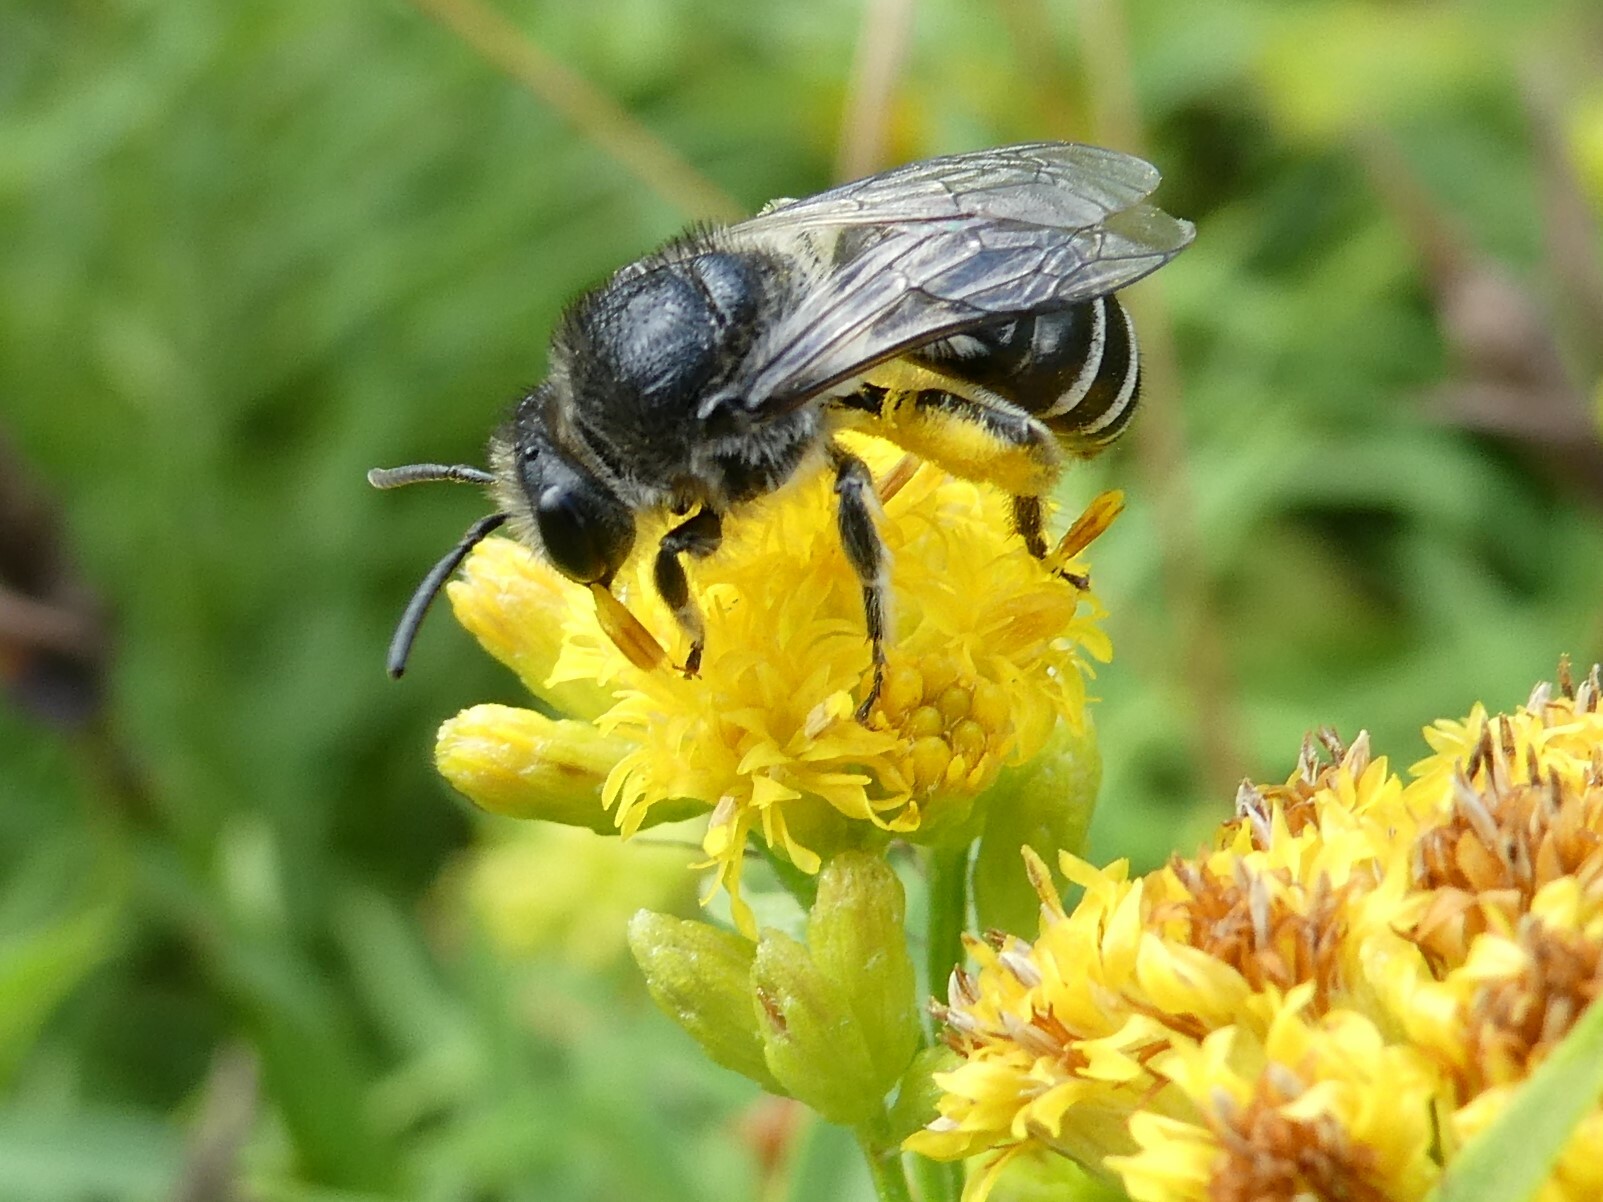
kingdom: Animalia
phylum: Arthropoda
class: Insecta
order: Hymenoptera
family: Colletidae
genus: Colletes
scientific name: Colletes simulans
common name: Spine-shouldered cellophane bee
